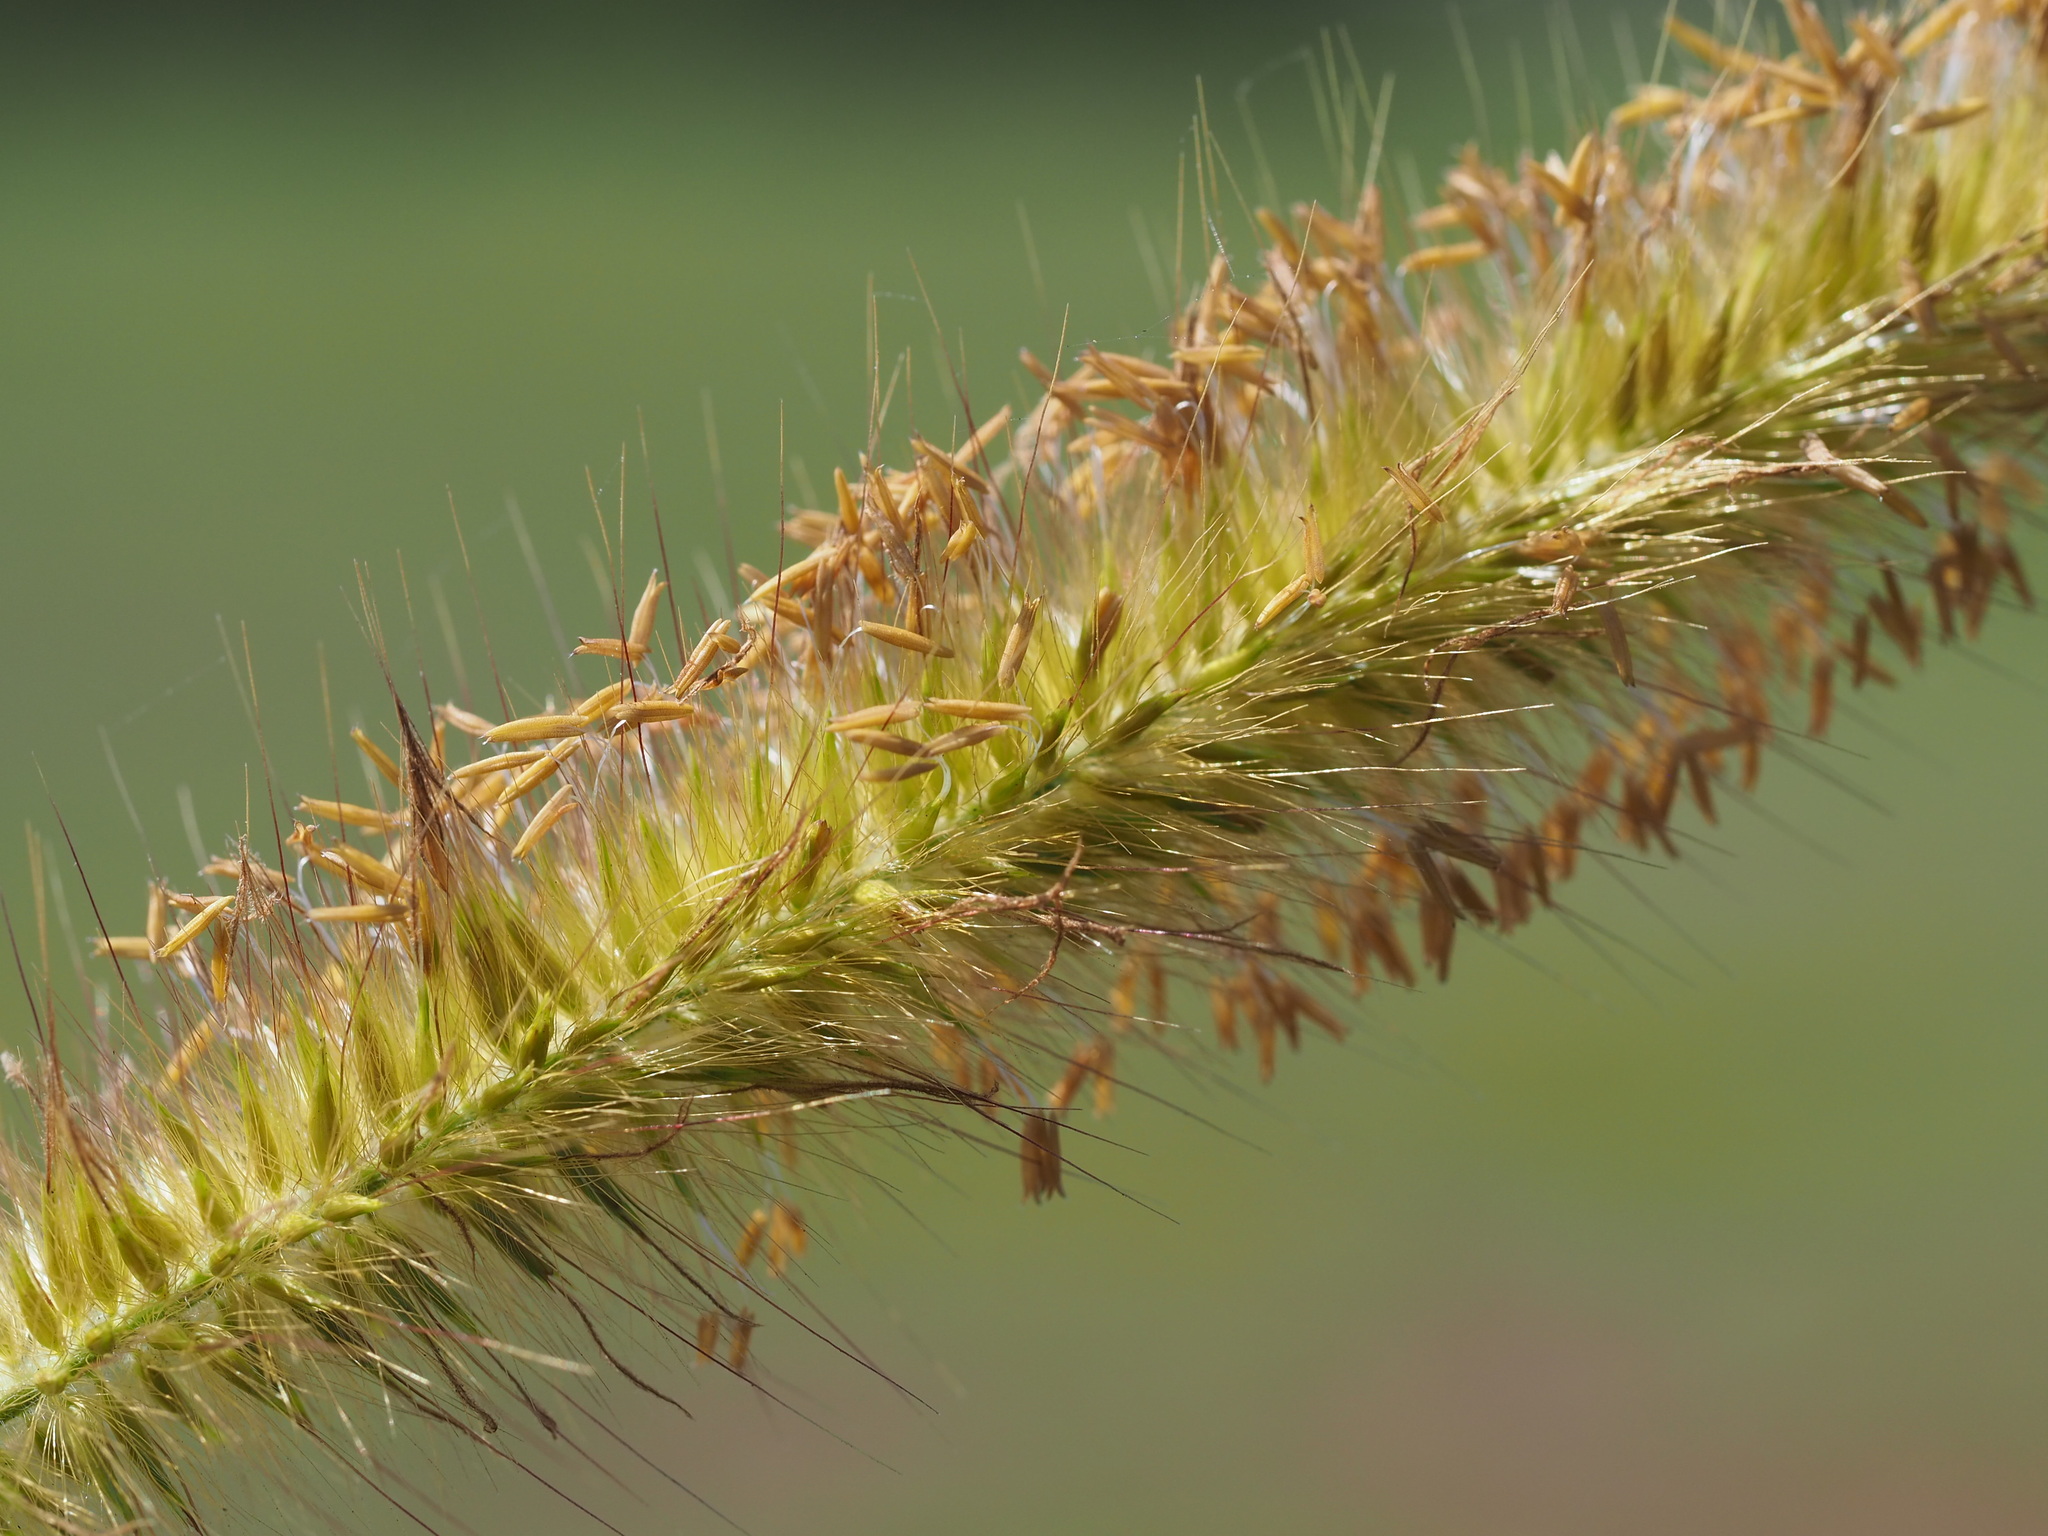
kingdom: Plantae
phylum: Tracheophyta
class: Liliopsida
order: Poales
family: Poaceae
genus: Cenchrus
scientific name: Cenchrus purpureus
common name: Elephant grass
